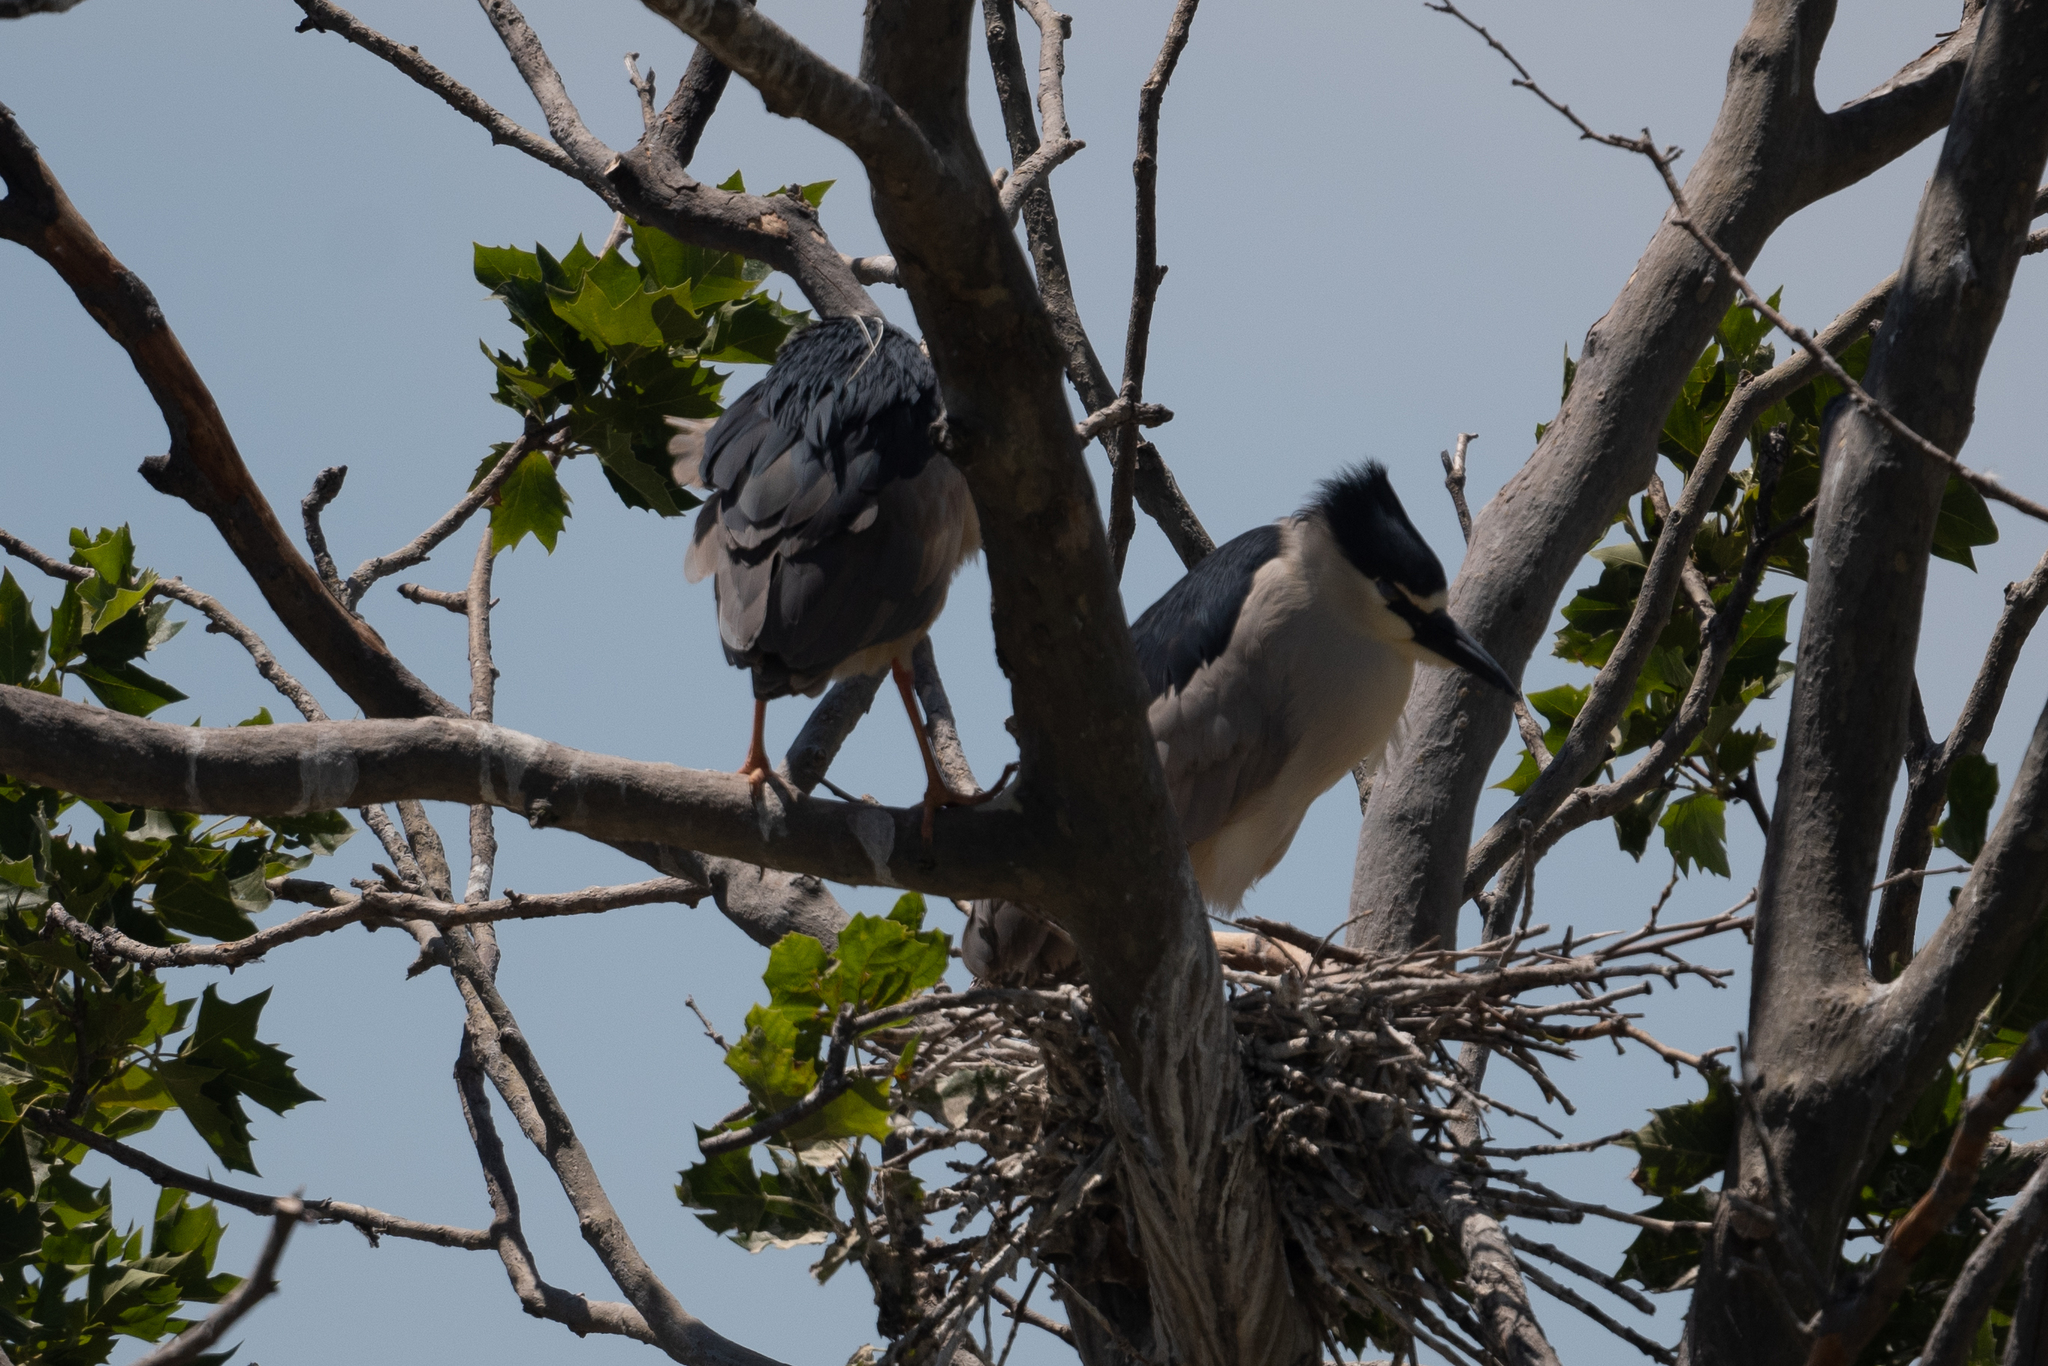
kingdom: Animalia
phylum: Chordata
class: Aves
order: Pelecaniformes
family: Ardeidae
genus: Nycticorax
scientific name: Nycticorax nycticorax
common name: Black-crowned night heron
